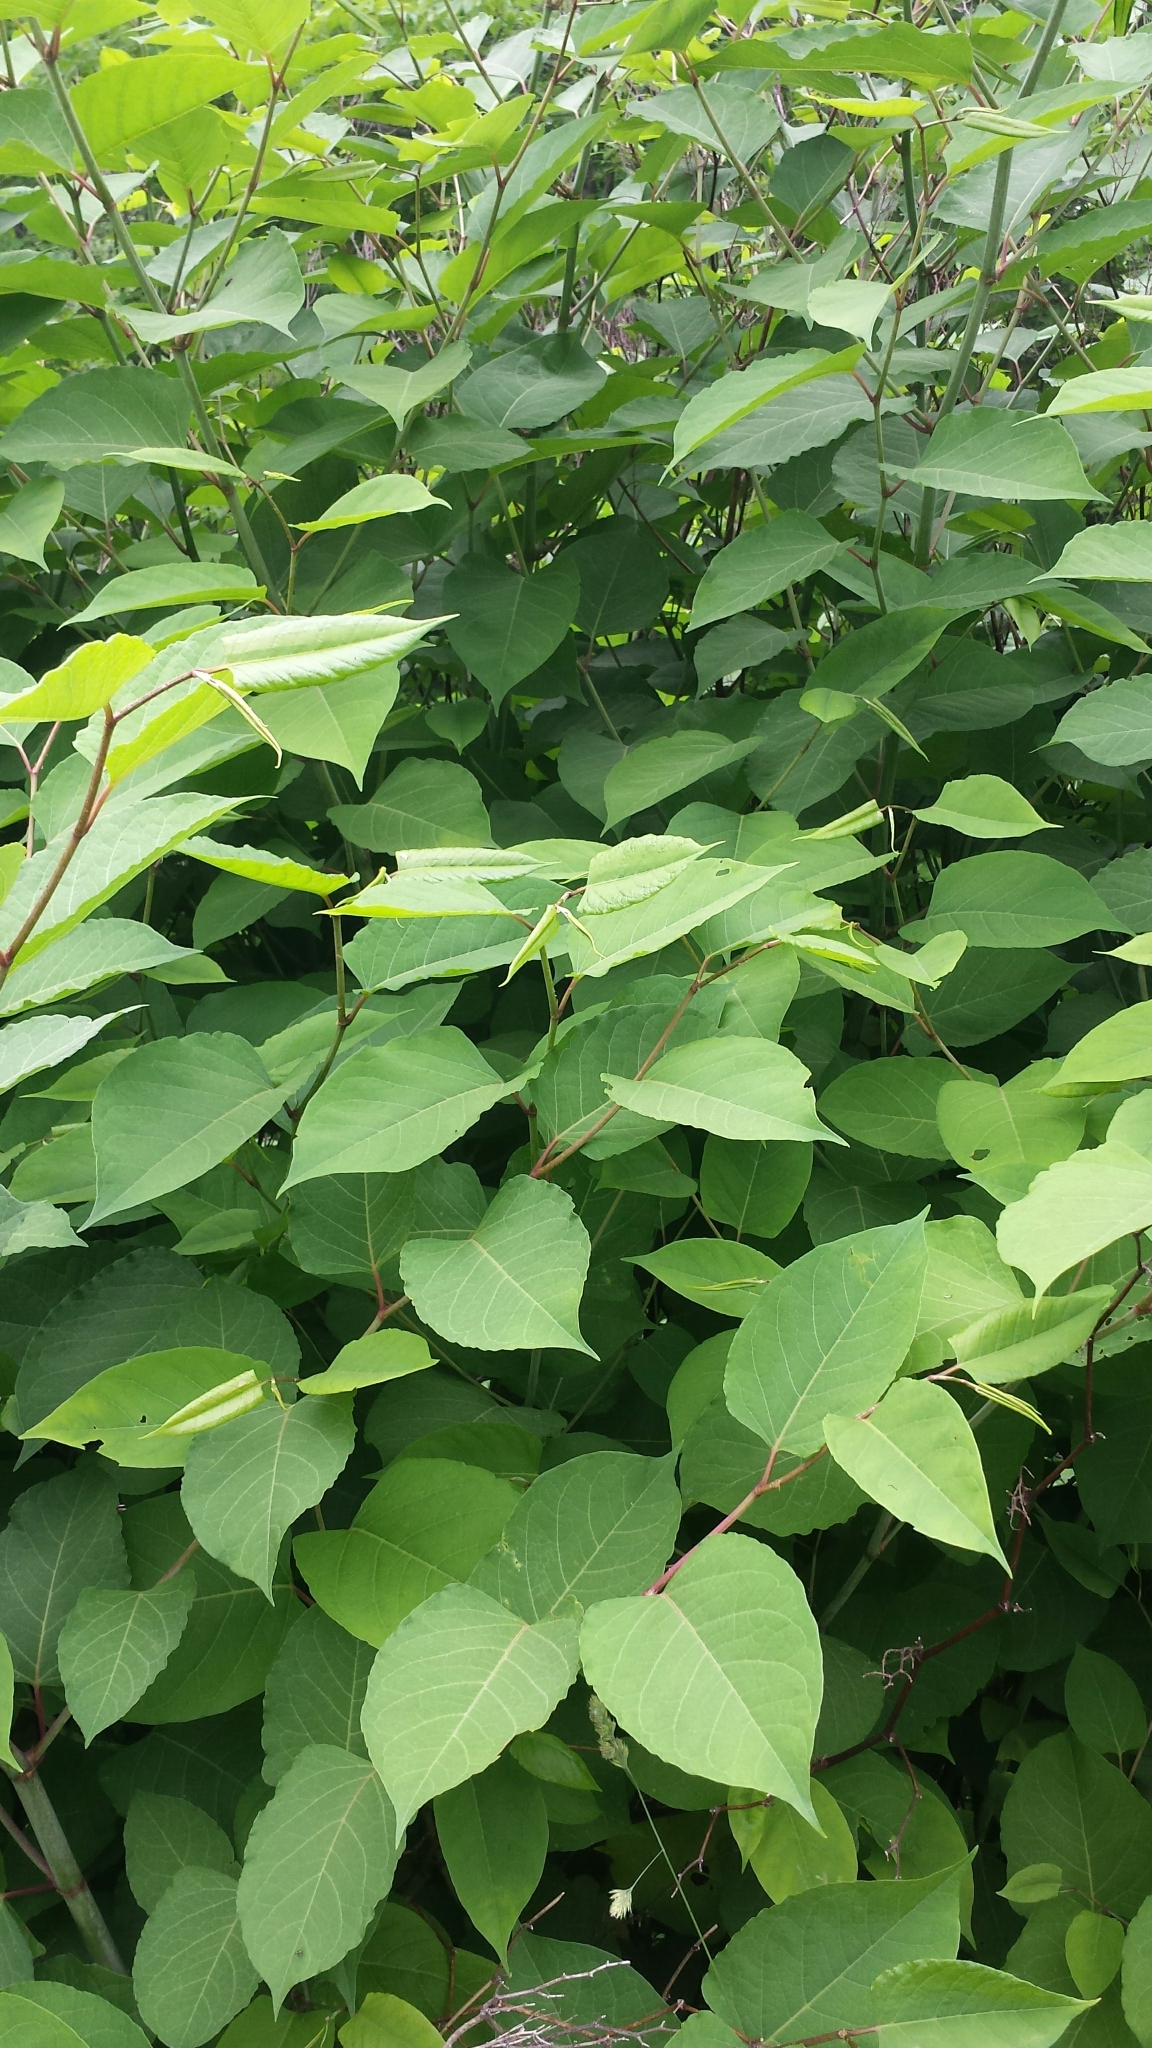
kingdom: Plantae
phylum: Tracheophyta
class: Magnoliopsida
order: Caryophyllales
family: Polygonaceae
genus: Reynoutria
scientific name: Reynoutria japonica
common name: Japanese knotweed
